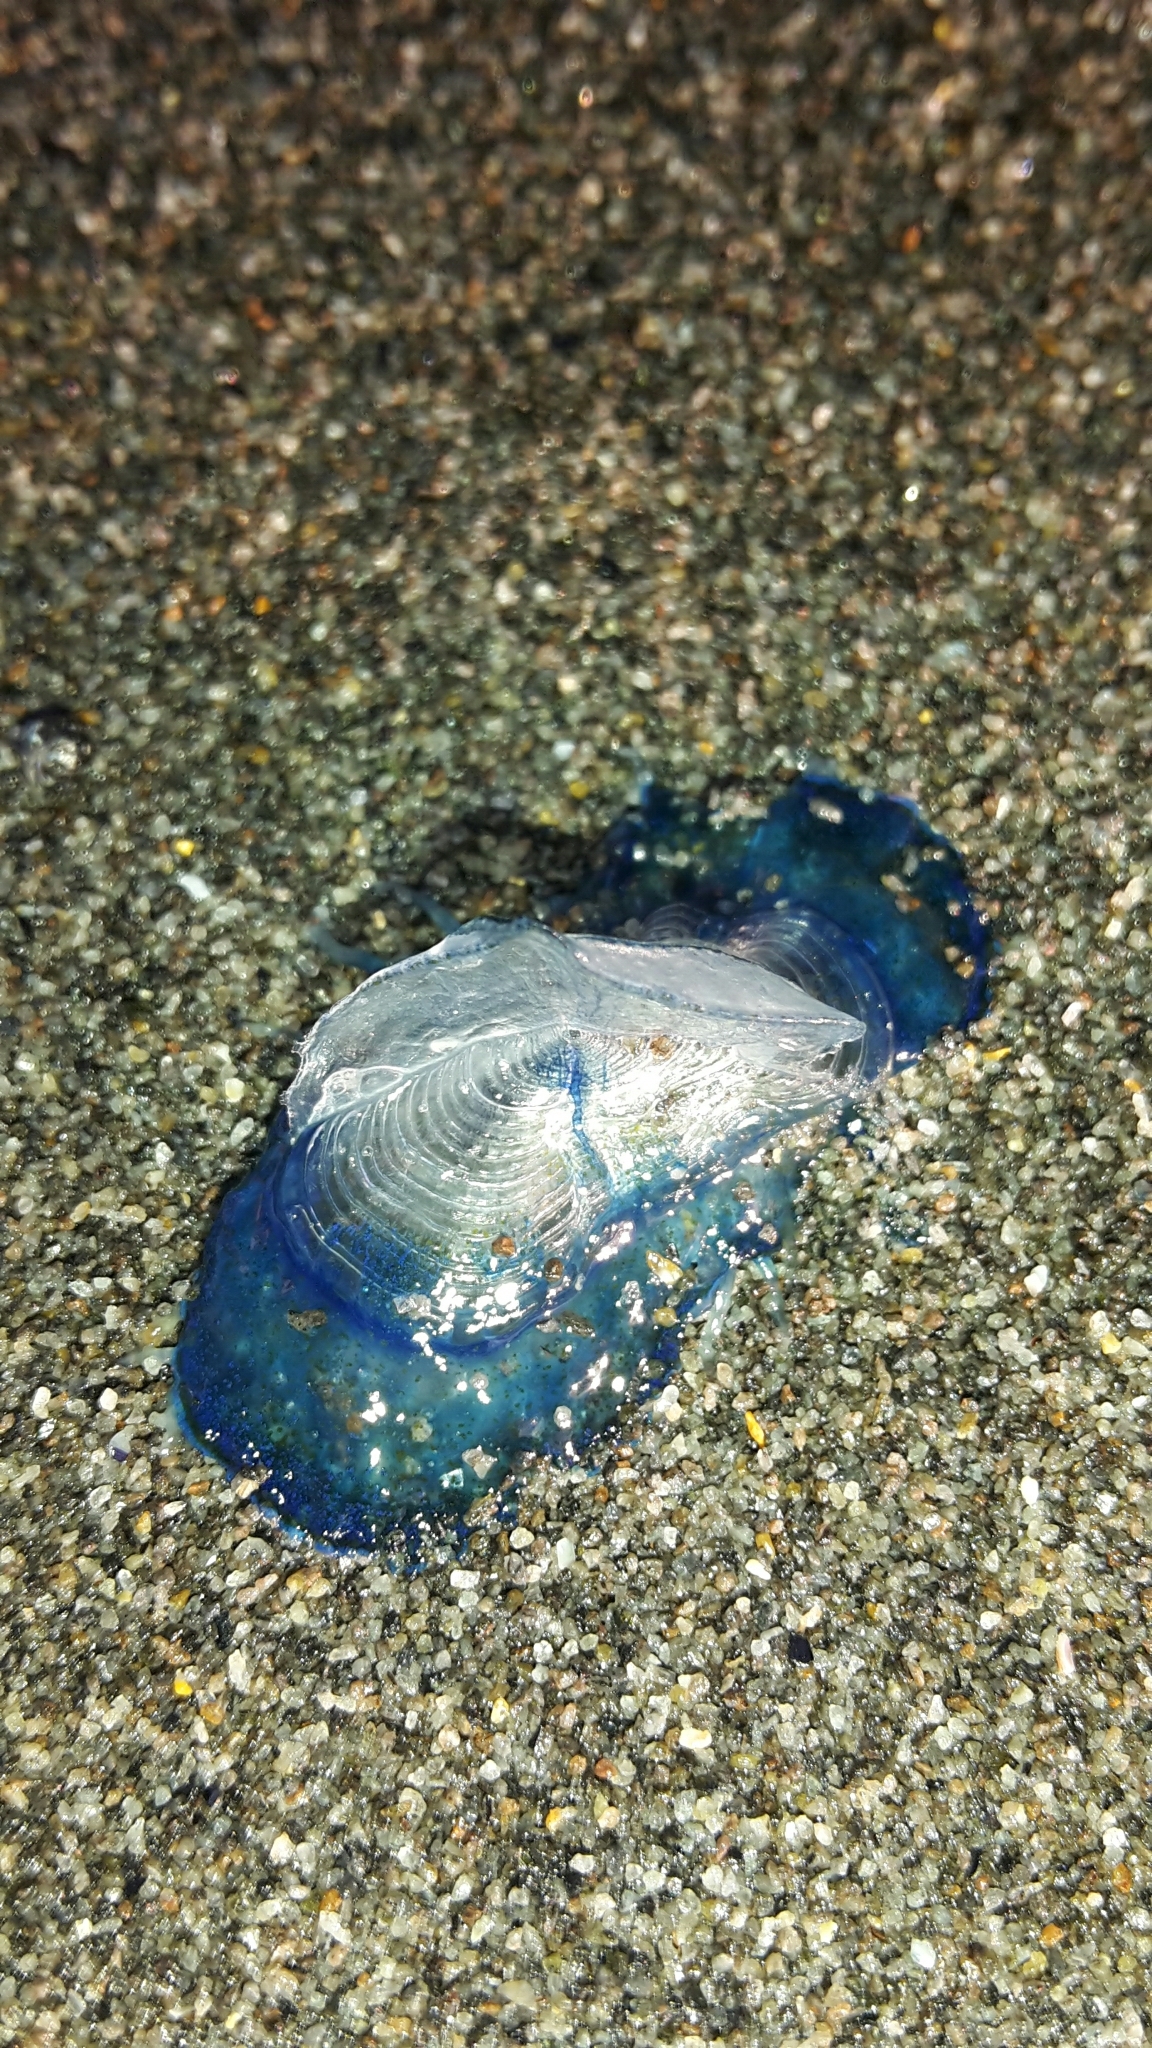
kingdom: Animalia
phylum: Cnidaria
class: Hydrozoa
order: Anthoathecata
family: Porpitidae
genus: Velella
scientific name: Velella velella
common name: By-the-wind-sailor
